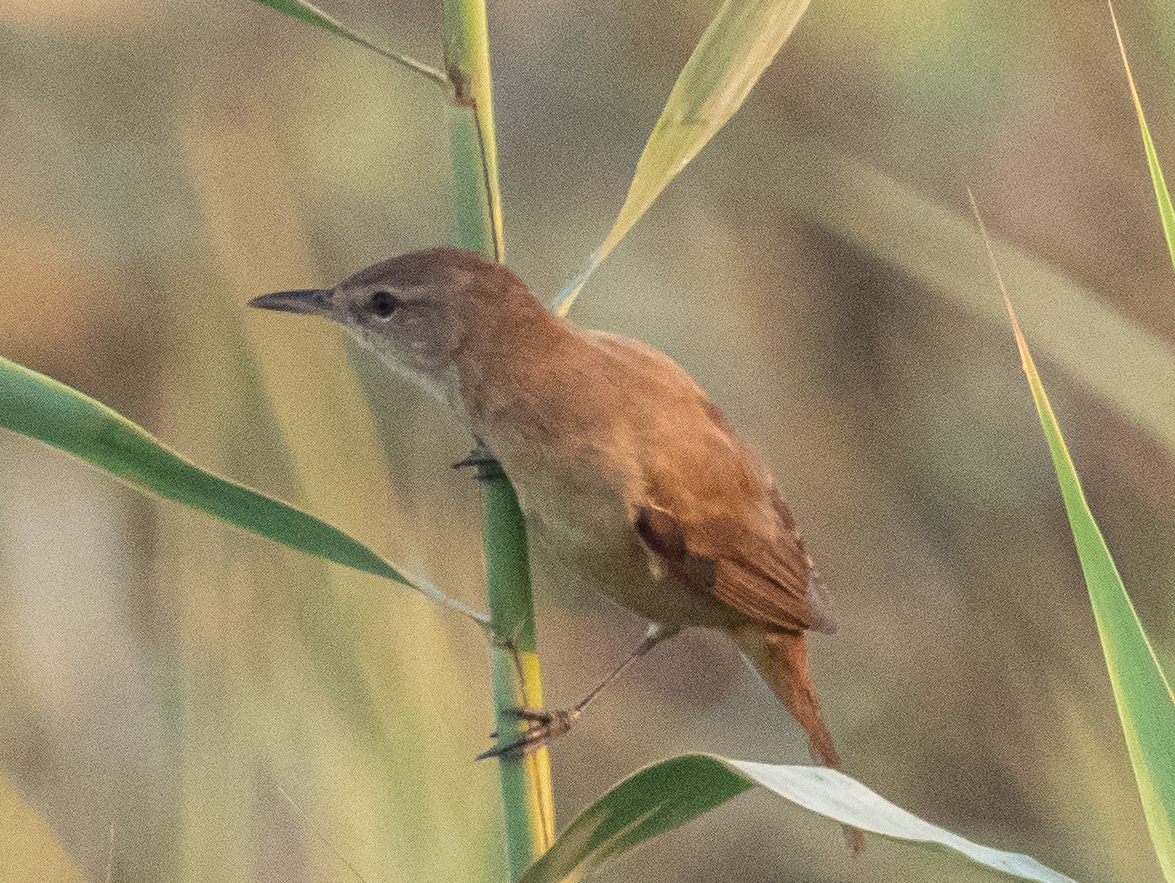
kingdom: Animalia
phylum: Chordata
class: Aves
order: Passeriformes
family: Acrocephalidae
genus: Acrocephalus
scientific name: Acrocephalus arundinaceus
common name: Great reed warbler
